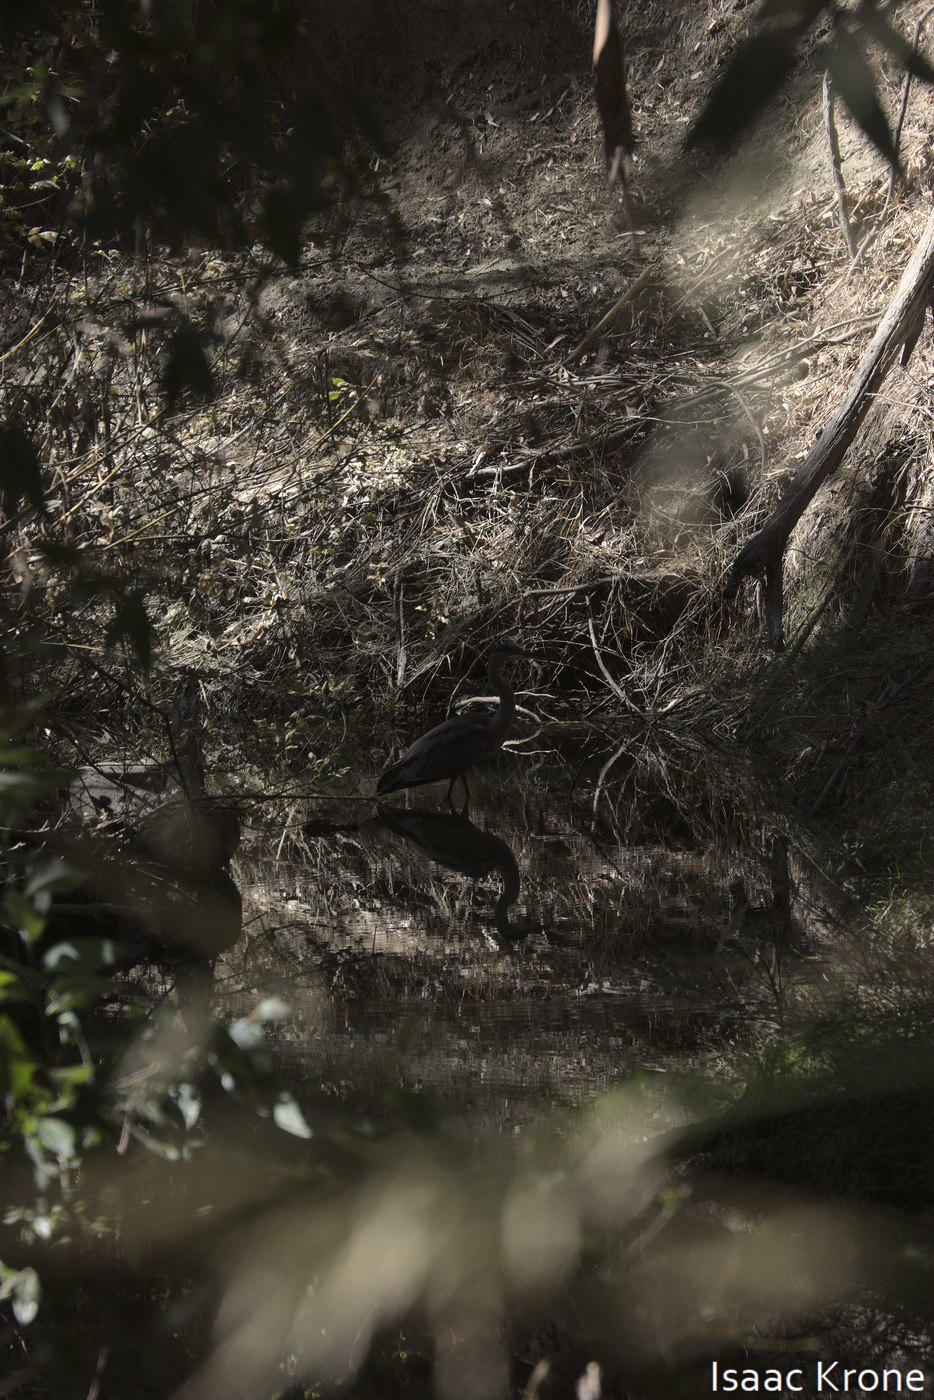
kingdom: Animalia
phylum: Chordata
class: Aves
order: Pelecaniformes
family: Ardeidae
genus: Ardea
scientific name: Ardea herodias
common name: Great blue heron
